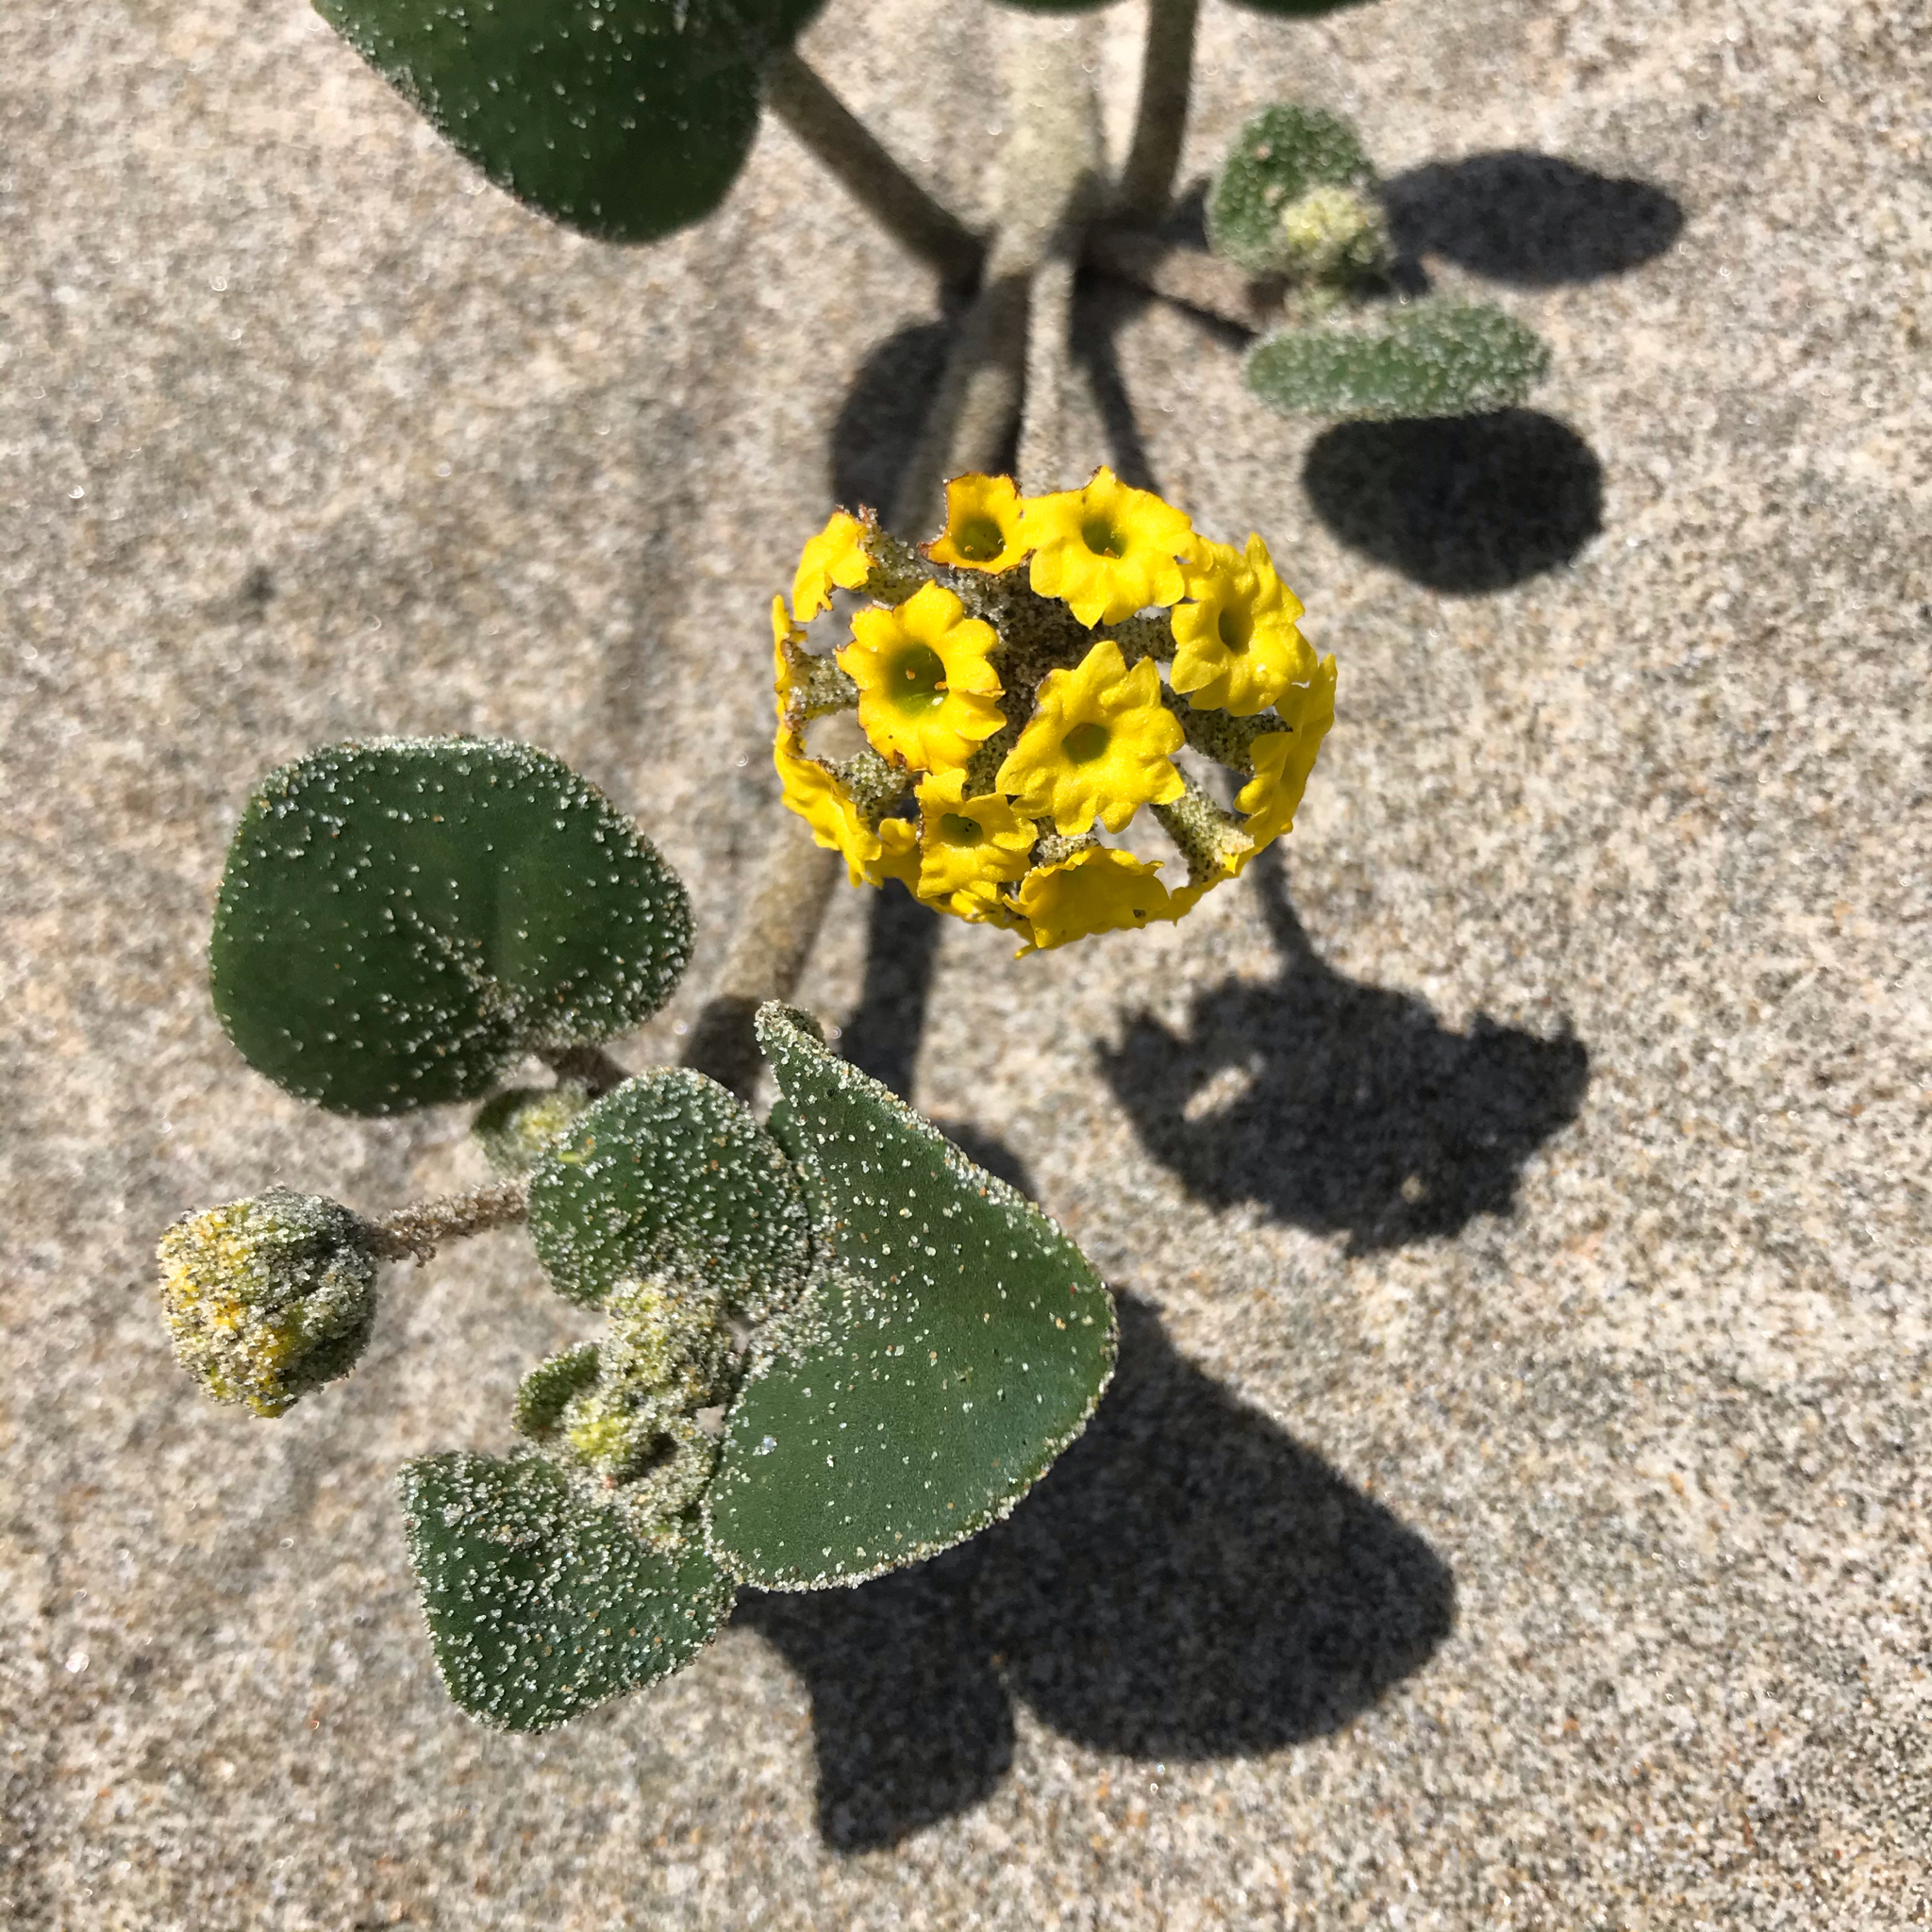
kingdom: Plantae
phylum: Tracheophyta
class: Magnoliopsida
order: Caryophyllales
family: Nyctaginaceae
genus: Abronia
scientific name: Abronia latifolia
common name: Yellow sand-verbena
